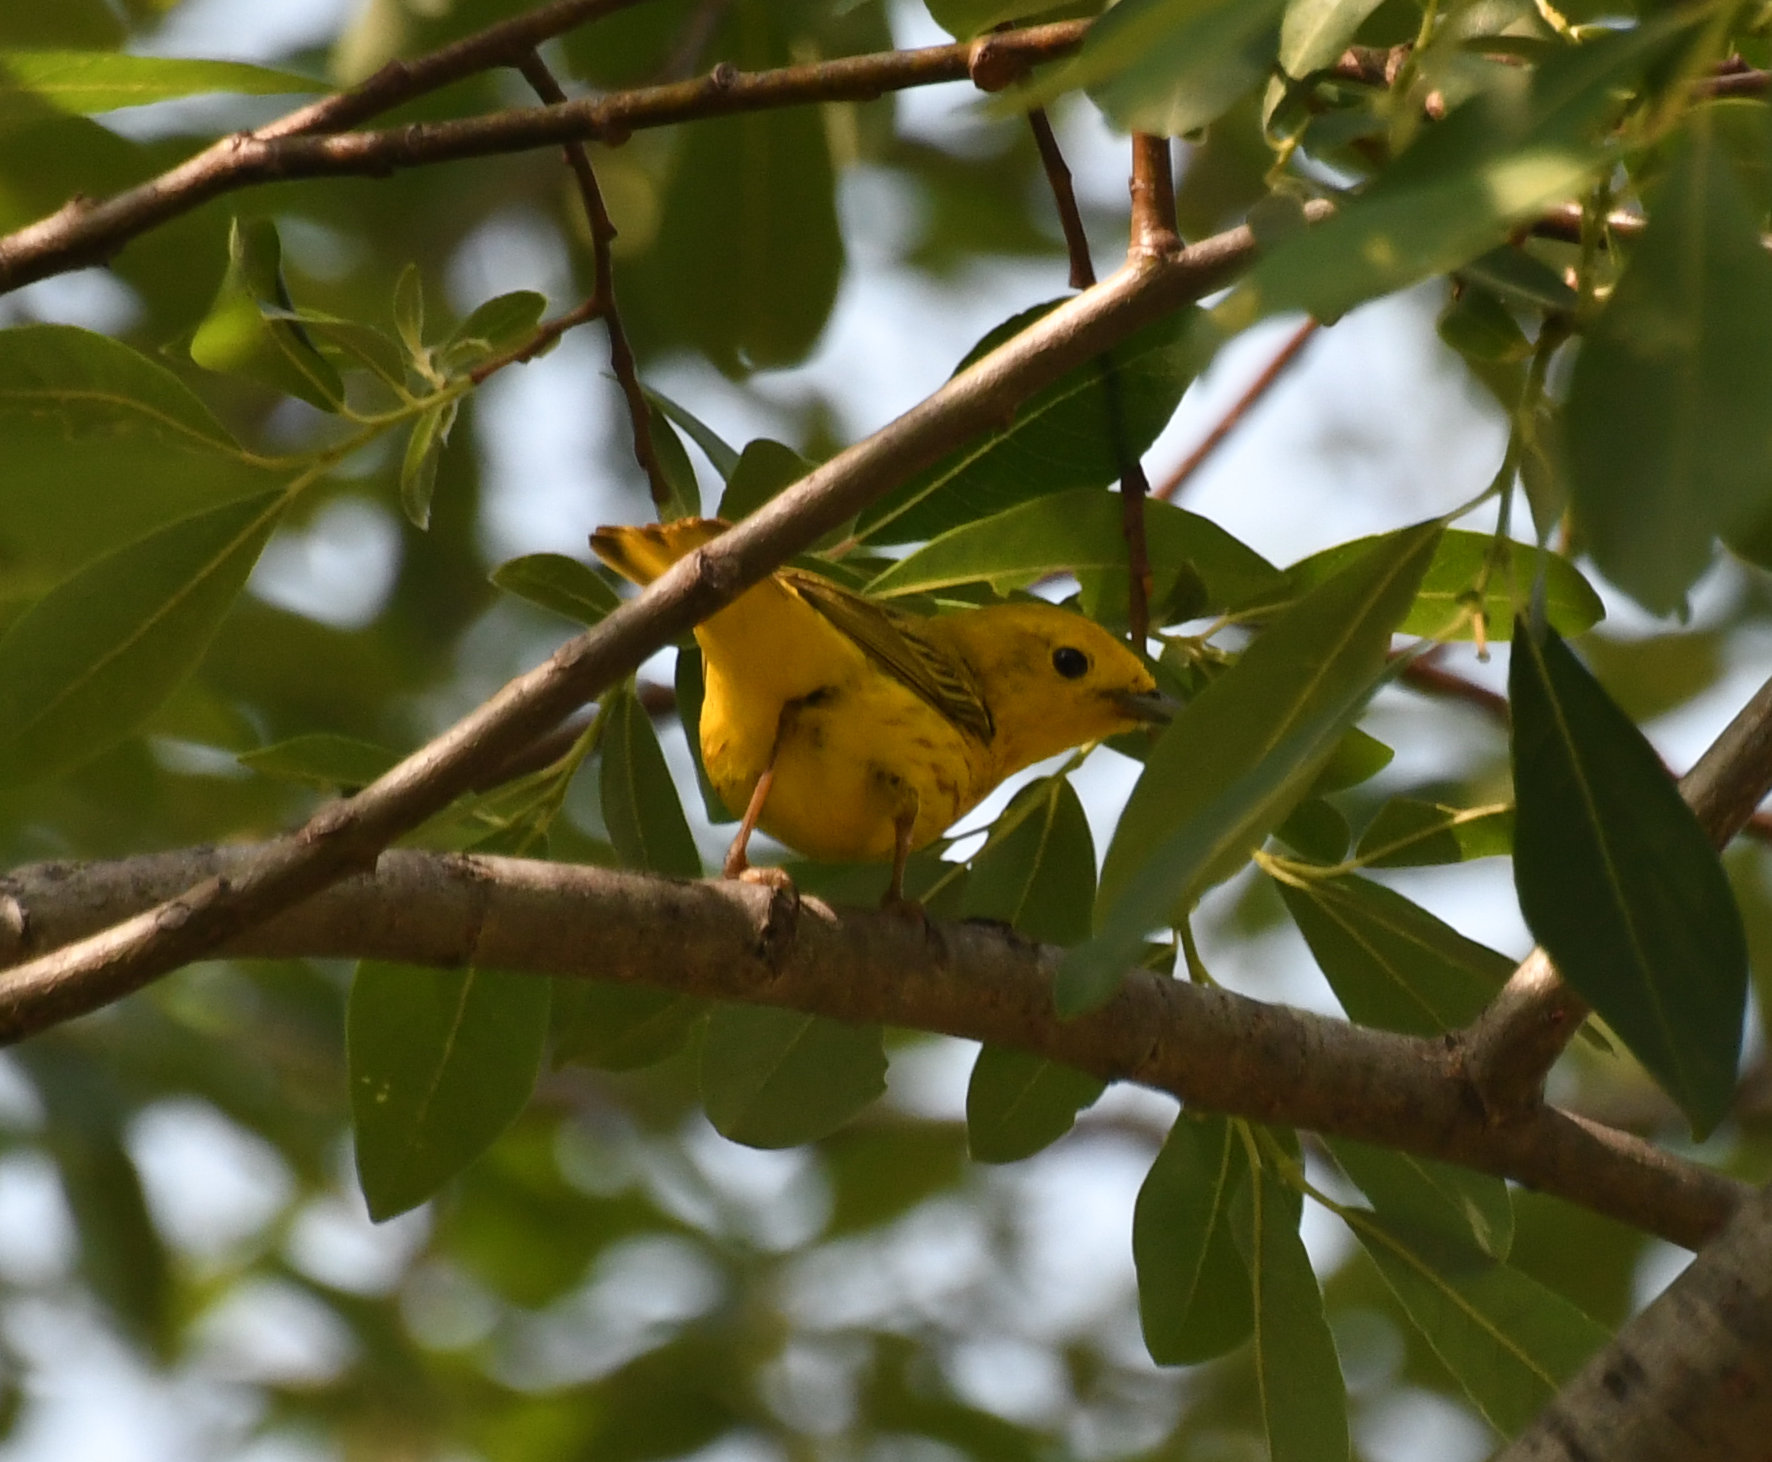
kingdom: Animalia
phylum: Chordata
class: Aves
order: Passeriformes
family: Parulidae
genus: Setophaga
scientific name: Setophaga petechia
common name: Yellow warbler
